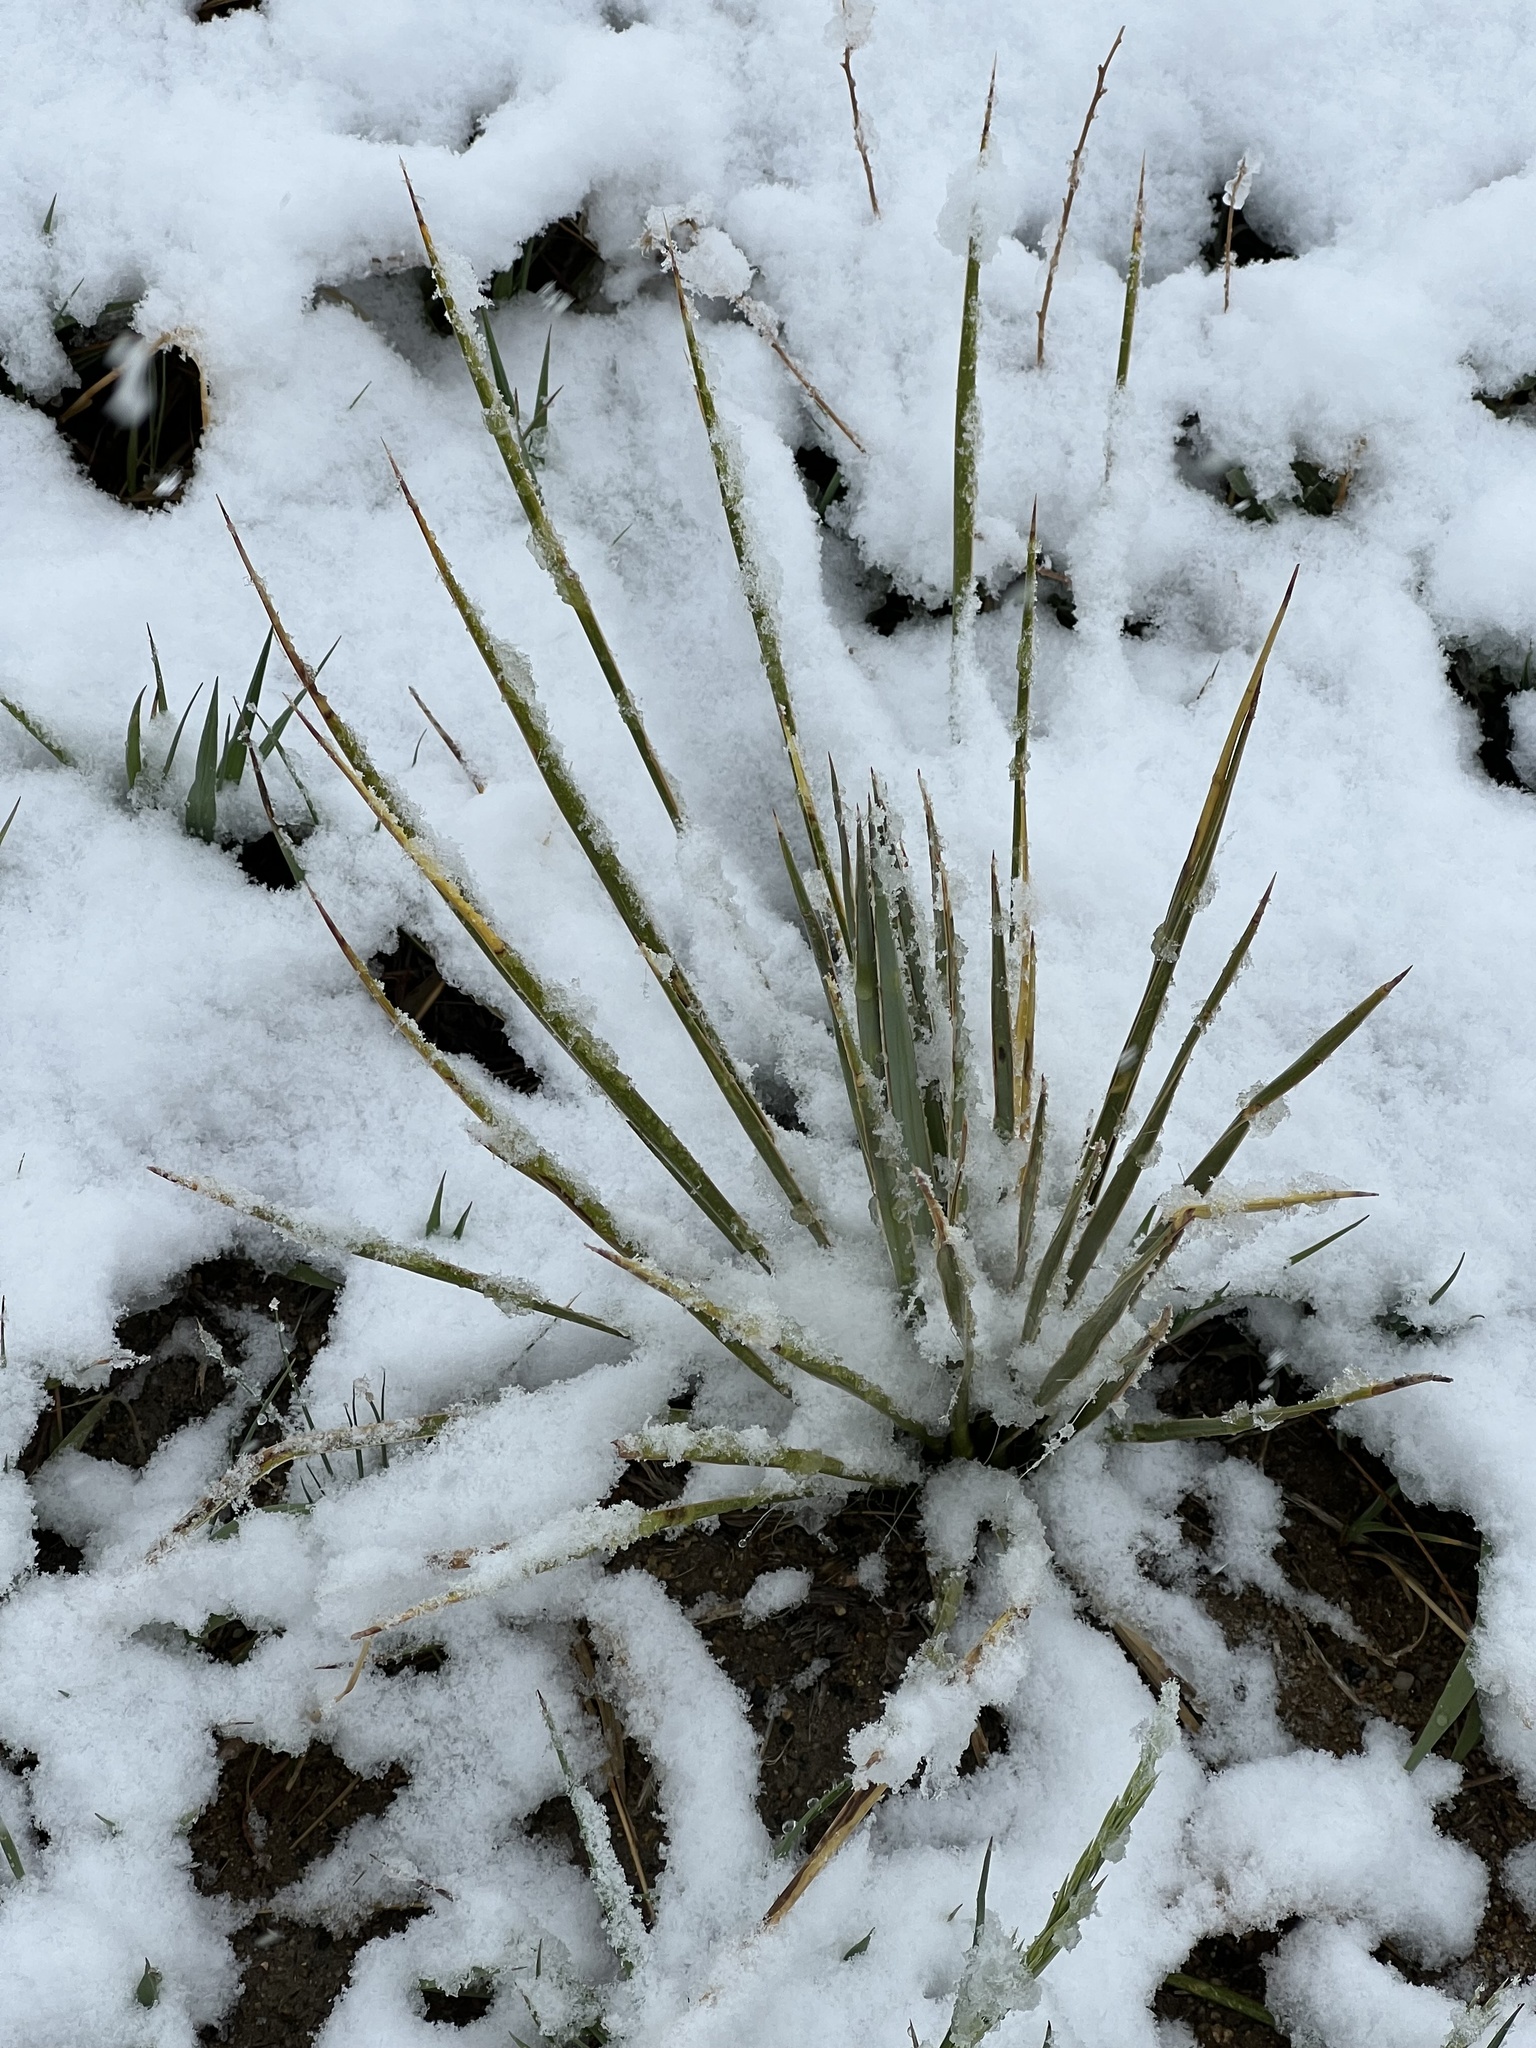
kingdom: Plantae
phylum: Tracheophyta
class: Liliopsida
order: Asparagales
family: Asparagaceae
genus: Yucca
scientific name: Yucca glauca
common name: Great plains yucca
